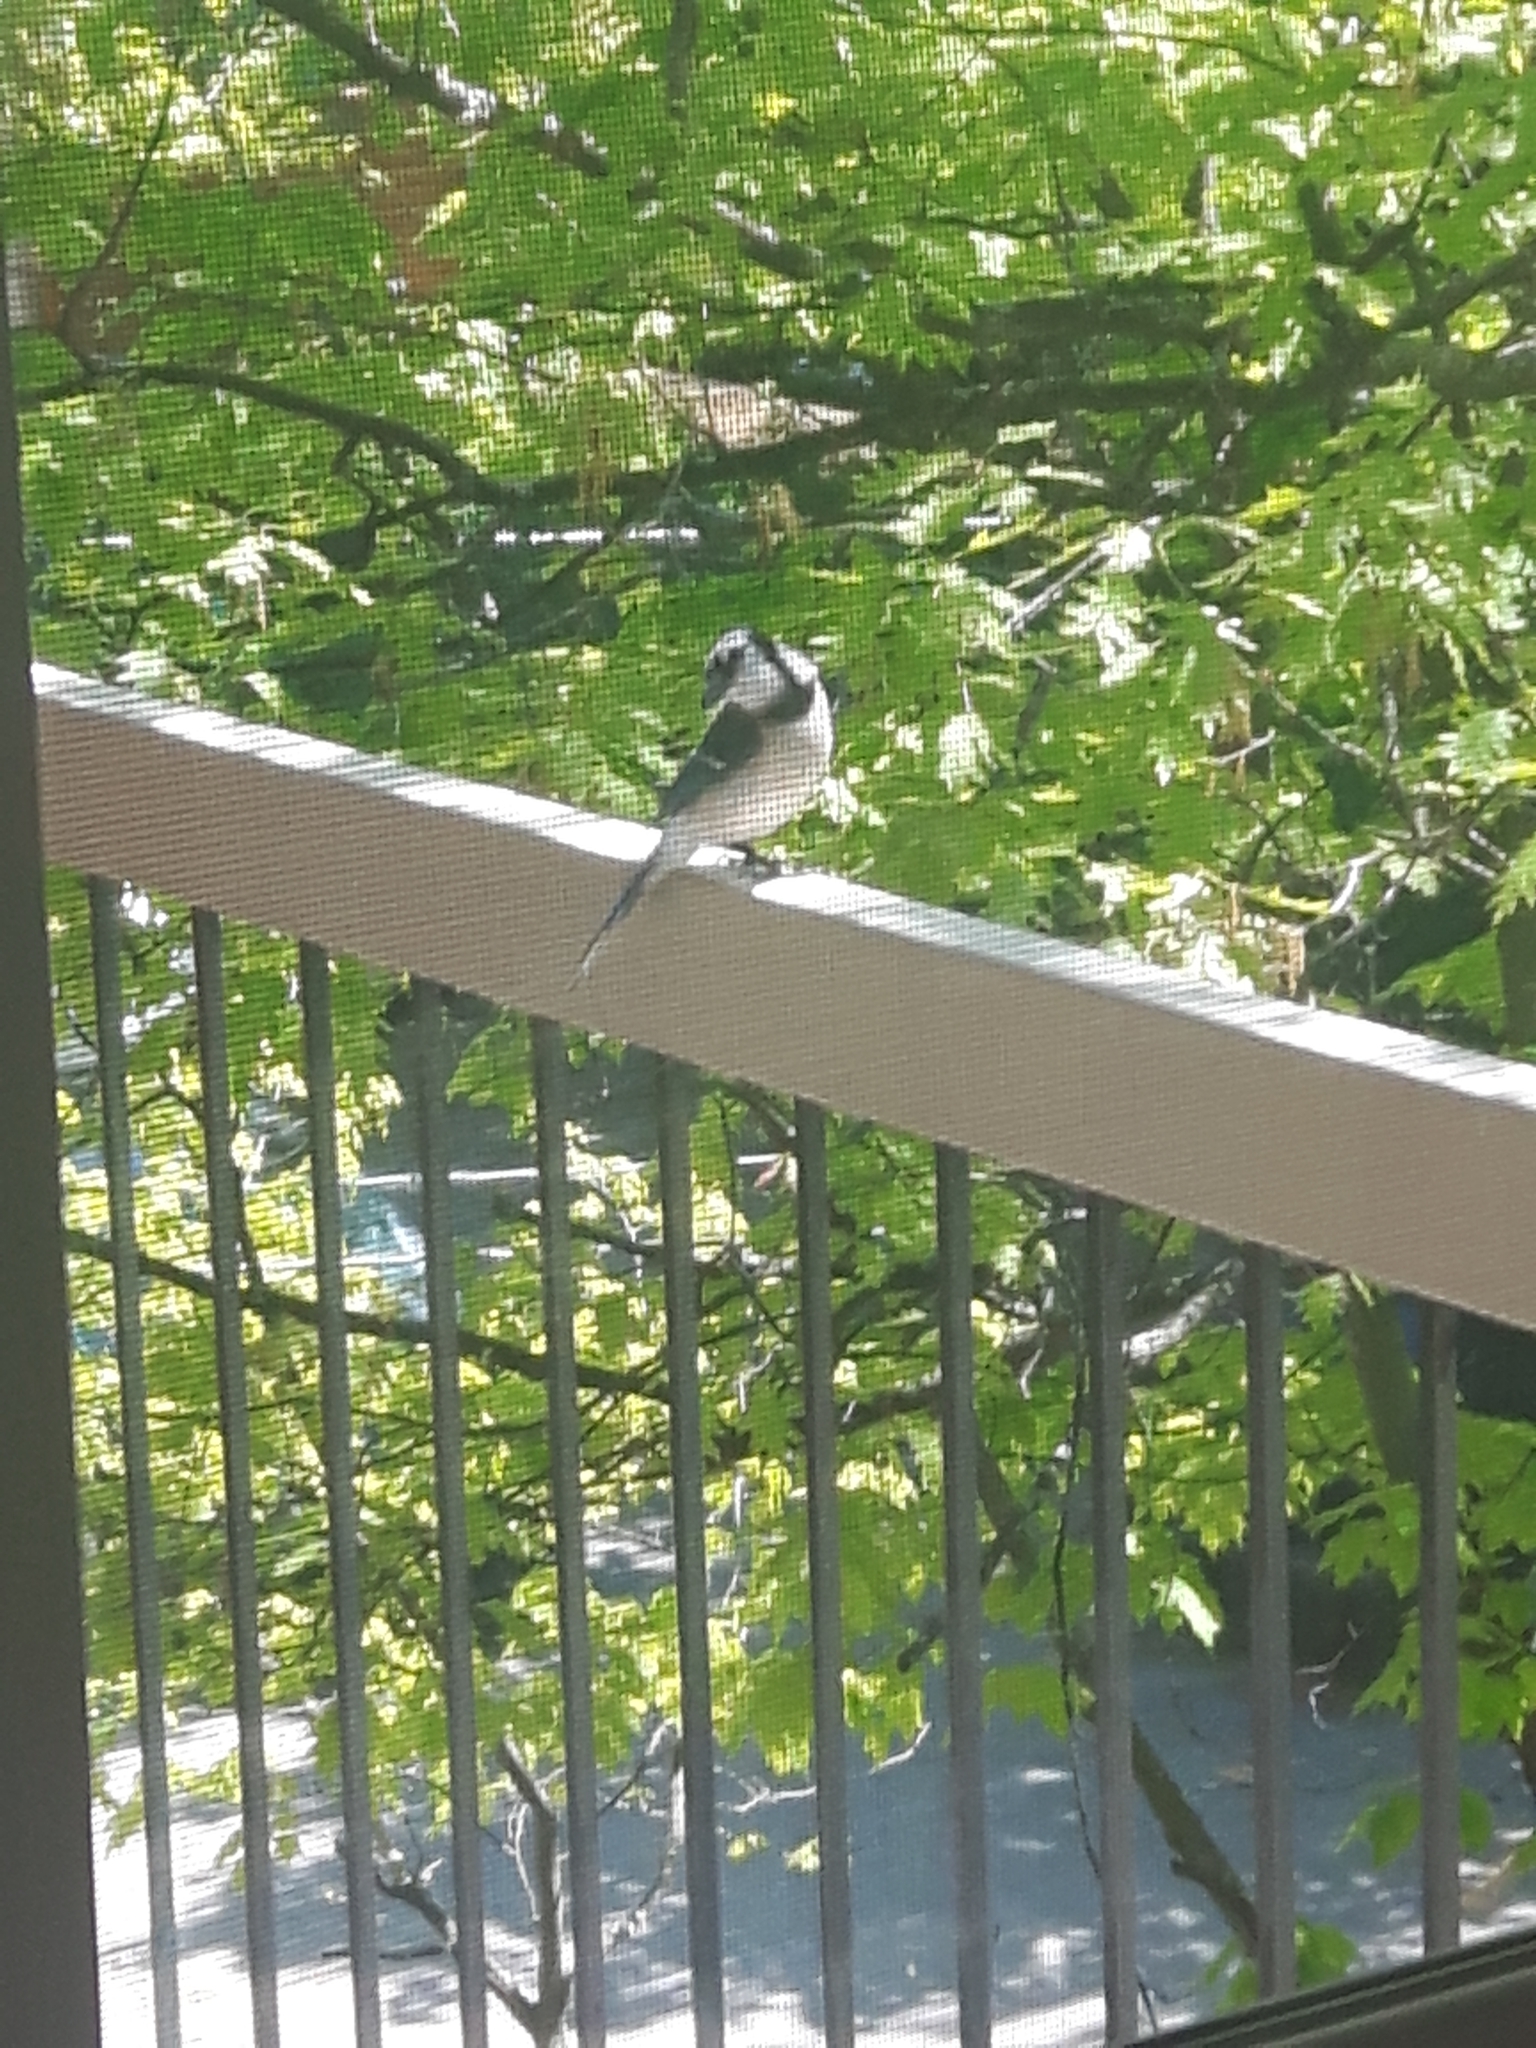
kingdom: Animalia
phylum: Chordata
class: Aves
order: Passeriformes
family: Corvidae
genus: Cyanocitta
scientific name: Cyanocitta cristata
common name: Blue jay
